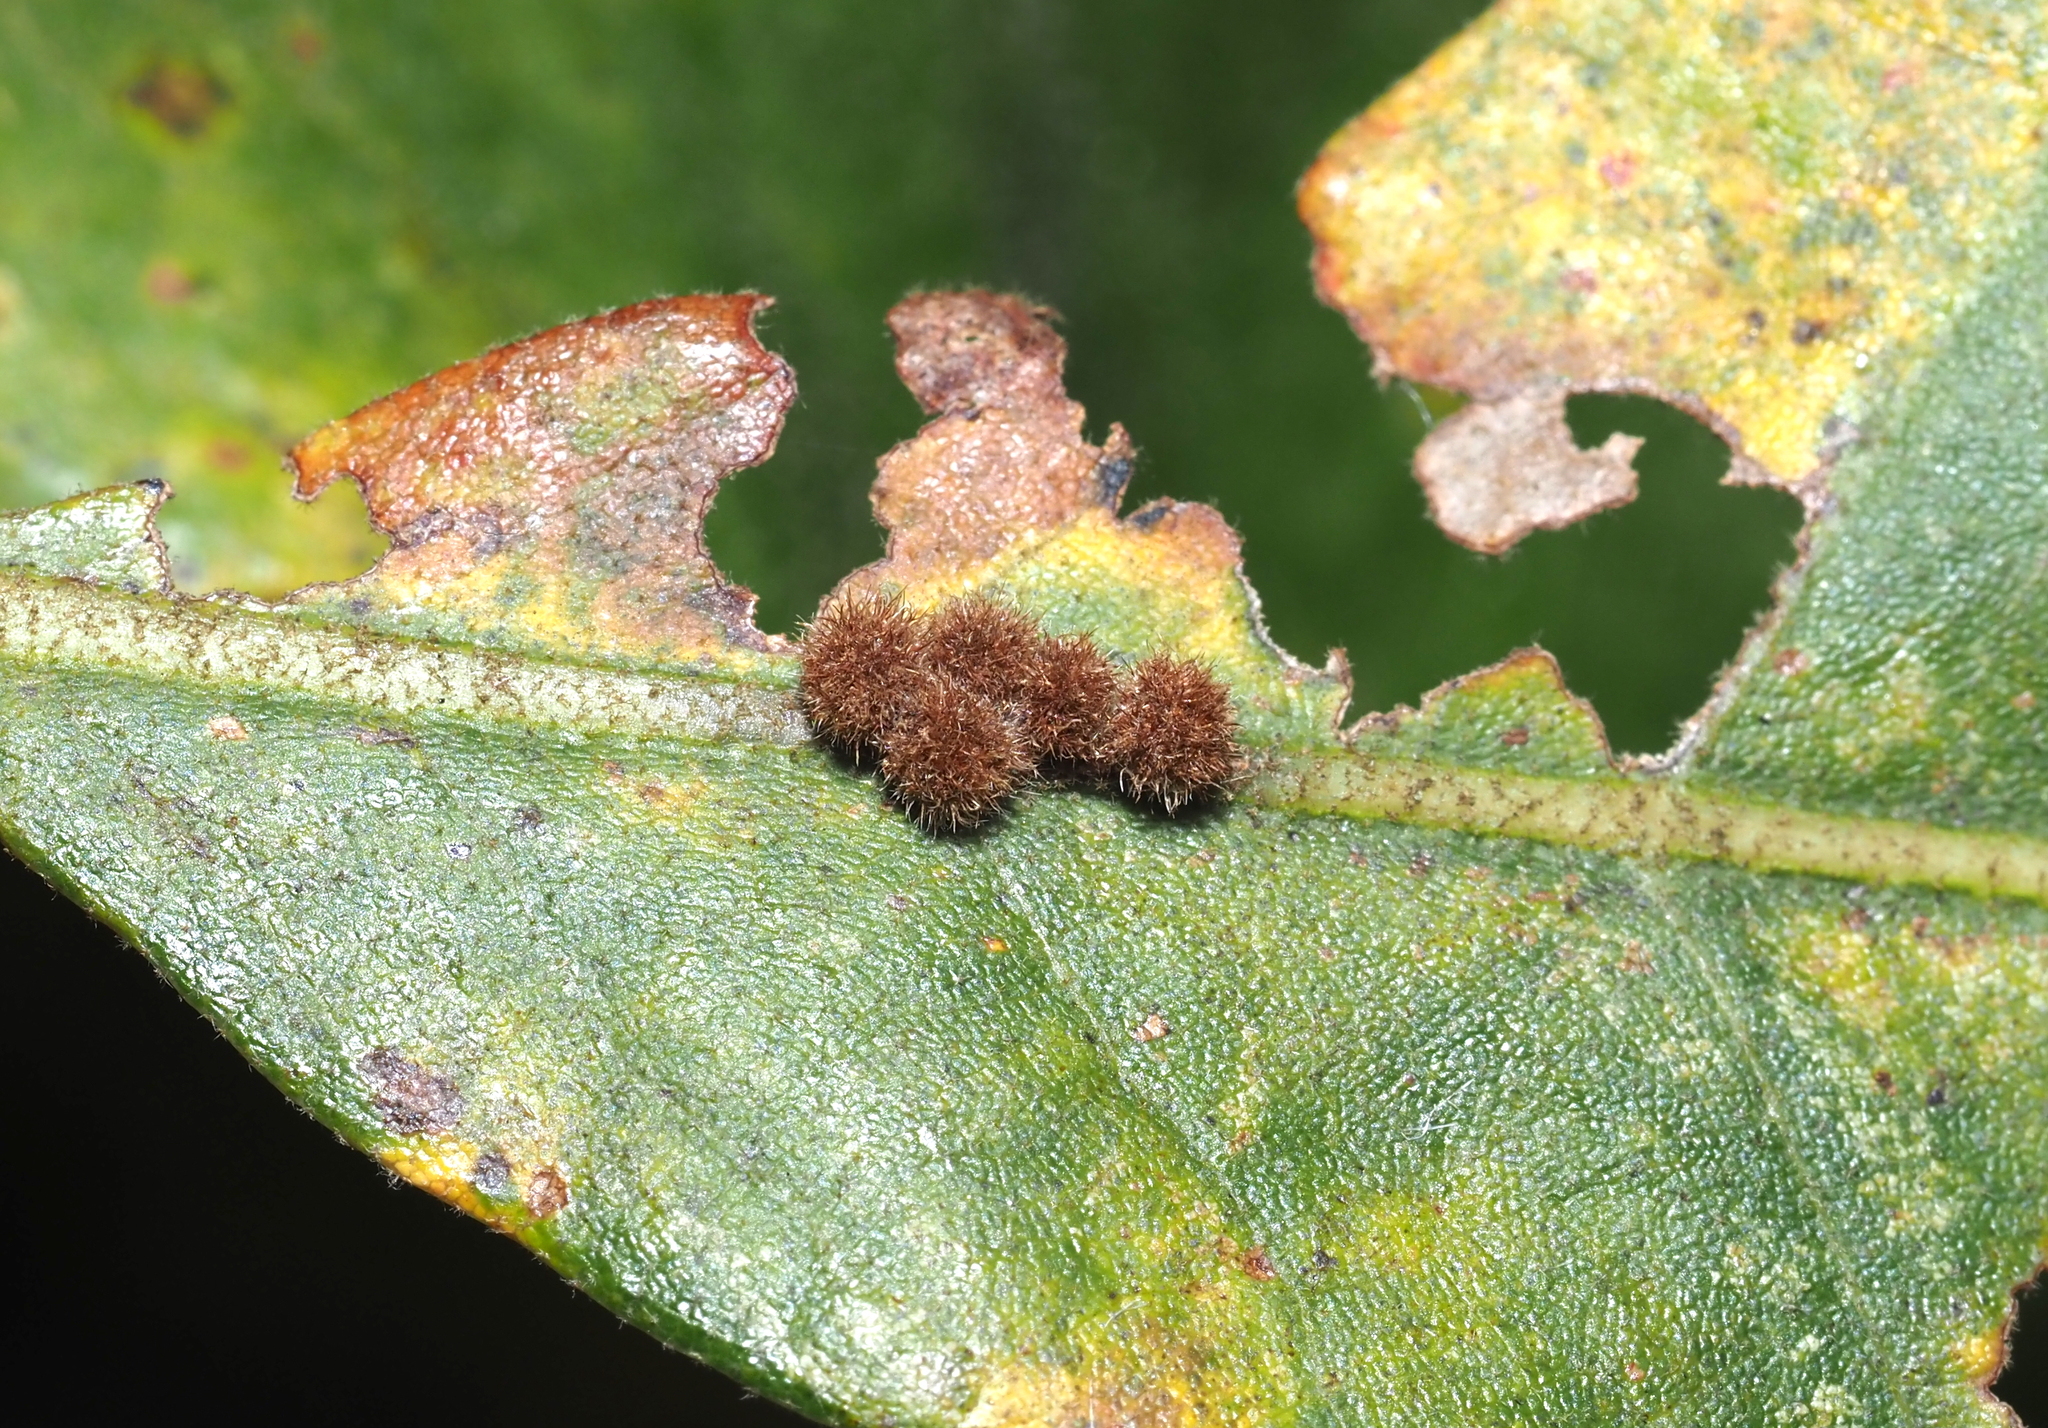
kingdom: Animalia
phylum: Arthropoda
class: Insecta
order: Hymenoptera
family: Cynipidae
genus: Biorhiza
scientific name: Biorhiza Sphaeroteras carolina
